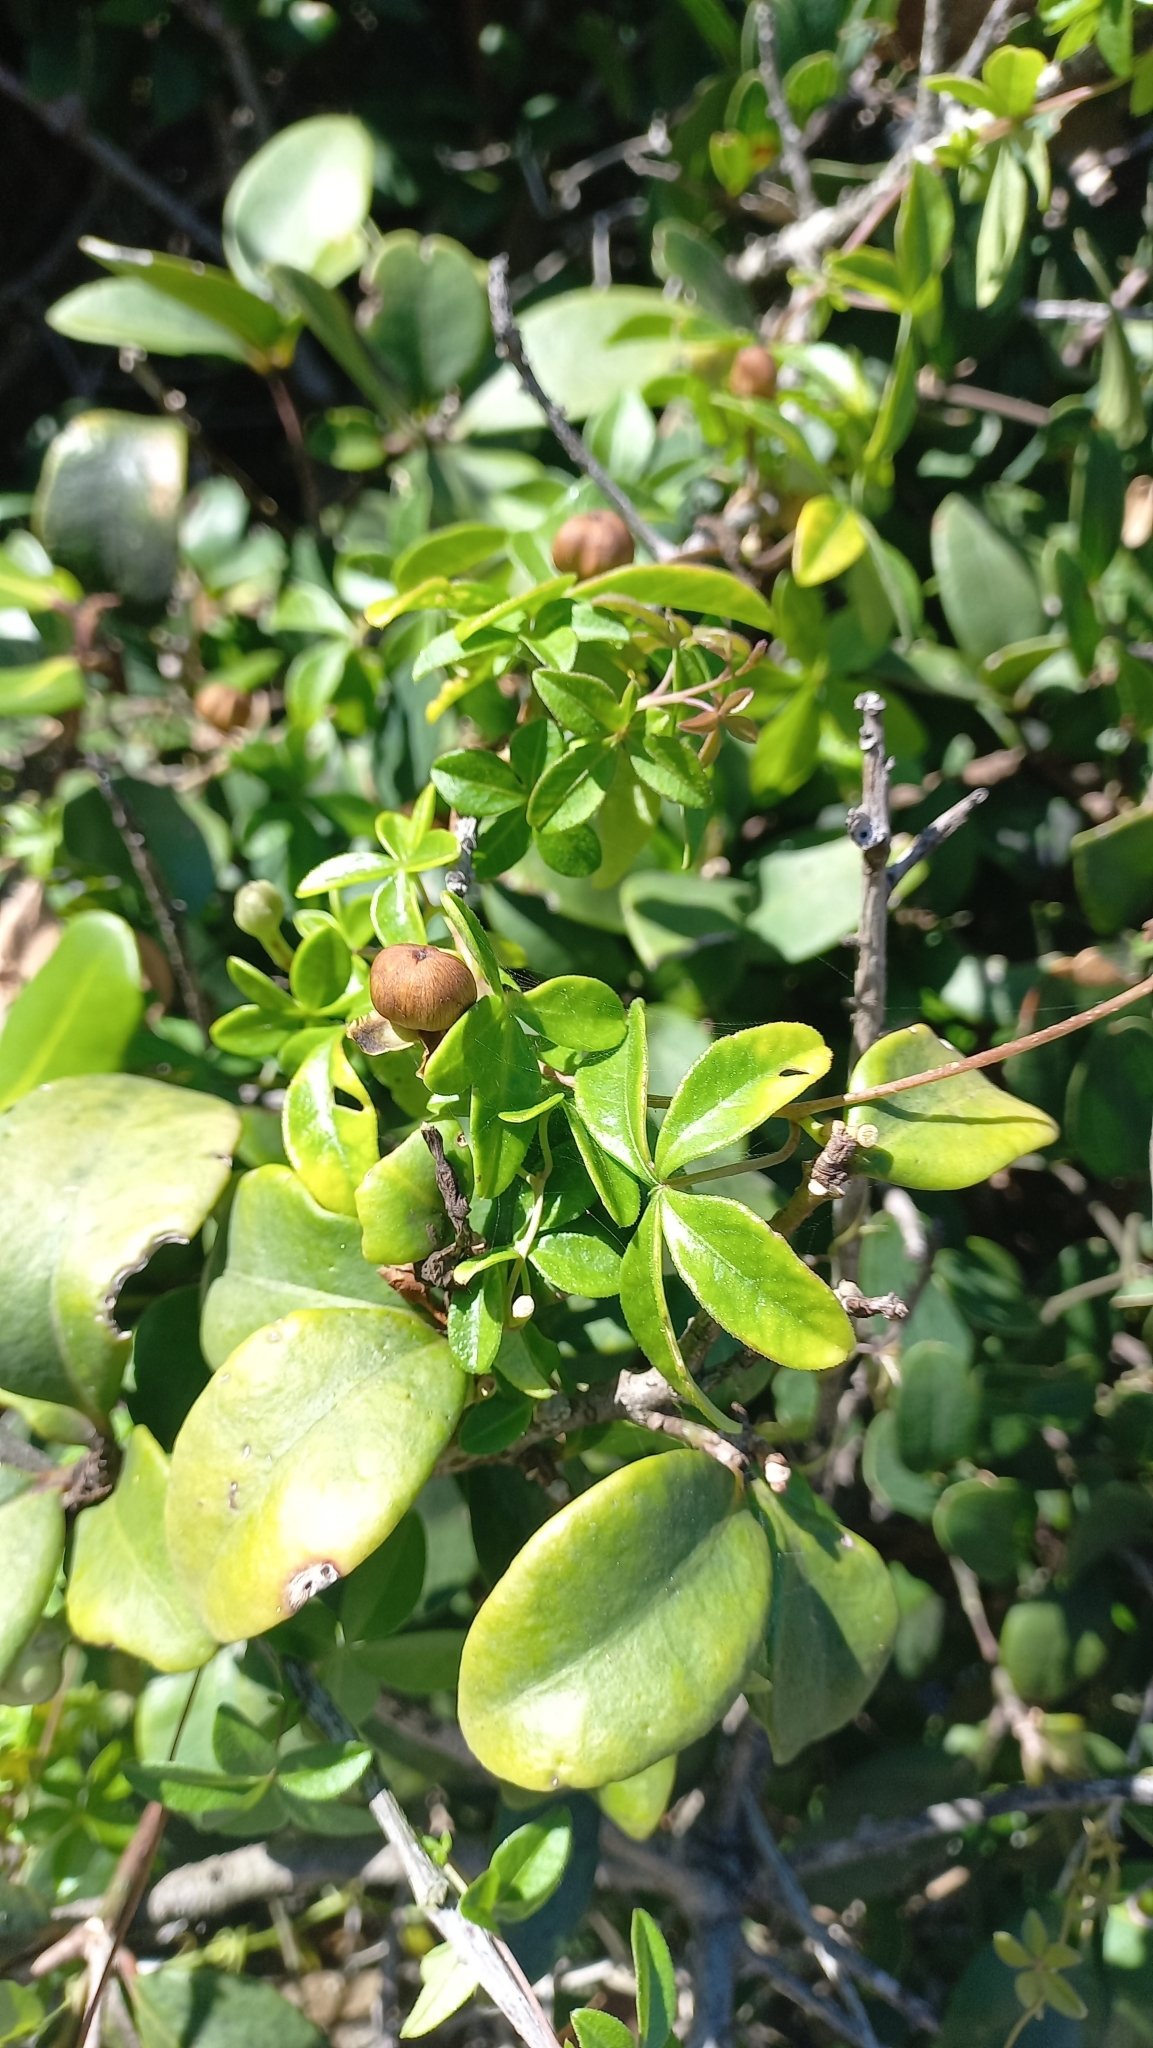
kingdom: Plantae
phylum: Tracheophyta
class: Magnoliopsida
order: Solanales
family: Convolvulaceae
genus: Ipomoea
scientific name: Ipomoea cairica
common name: Mile a minute vine
